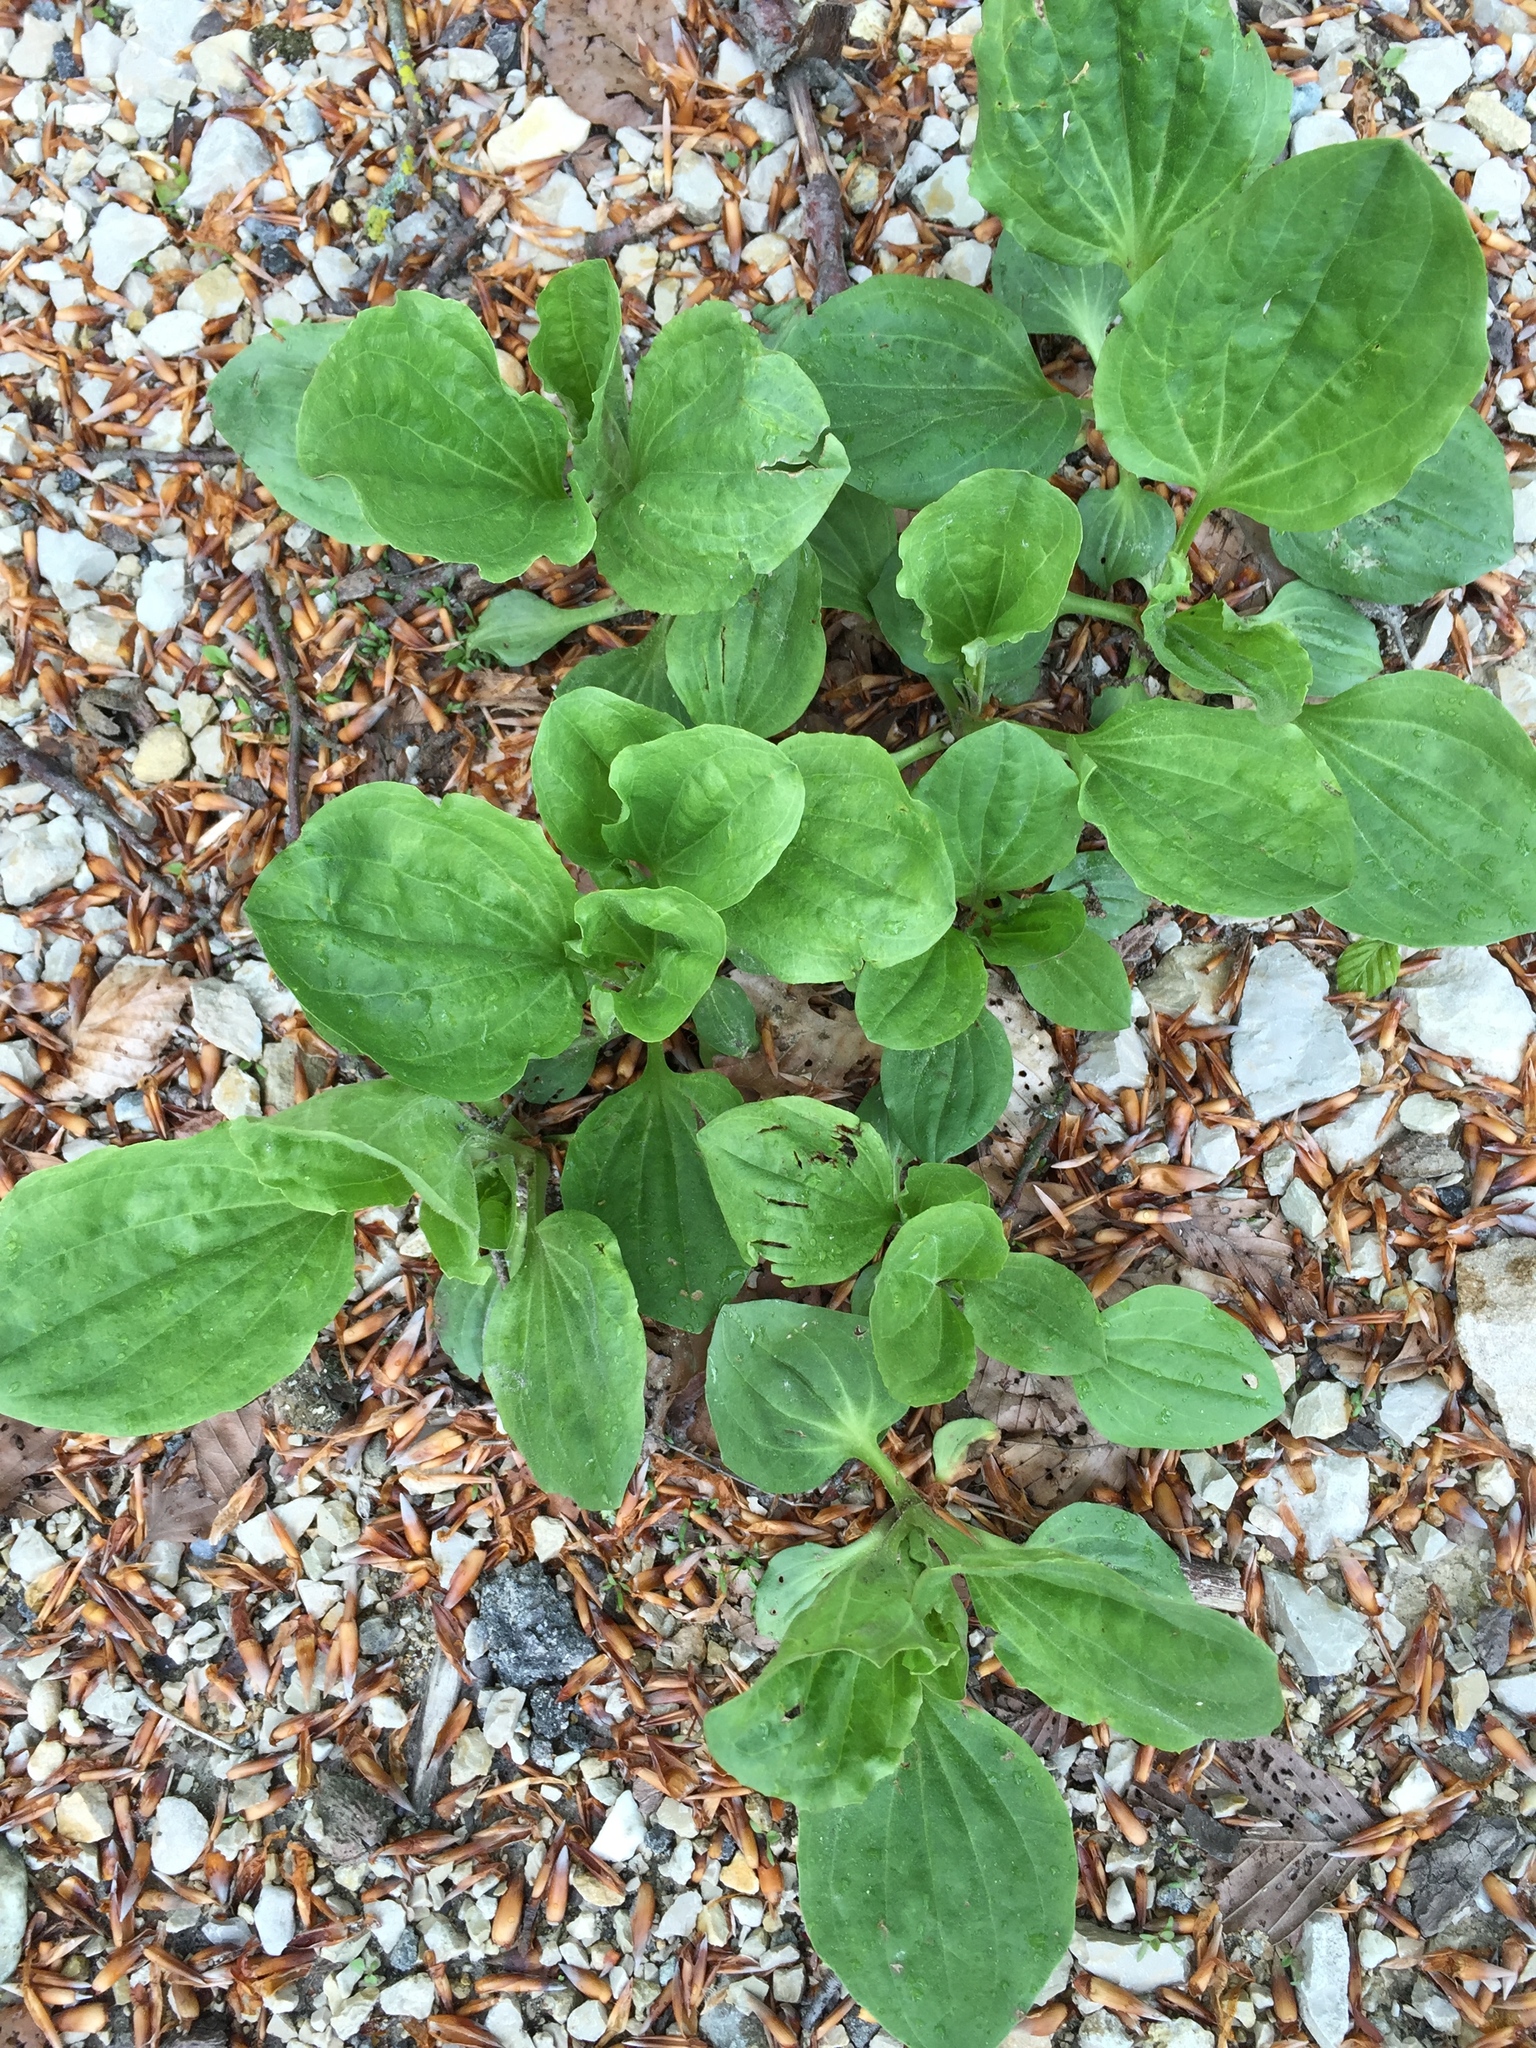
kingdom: Plantae
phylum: Tracheophyta
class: Magnoliopsida
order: Lamiales
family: Plantaginaceae
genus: Plantago
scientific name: Plantago major
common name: Common plantain
